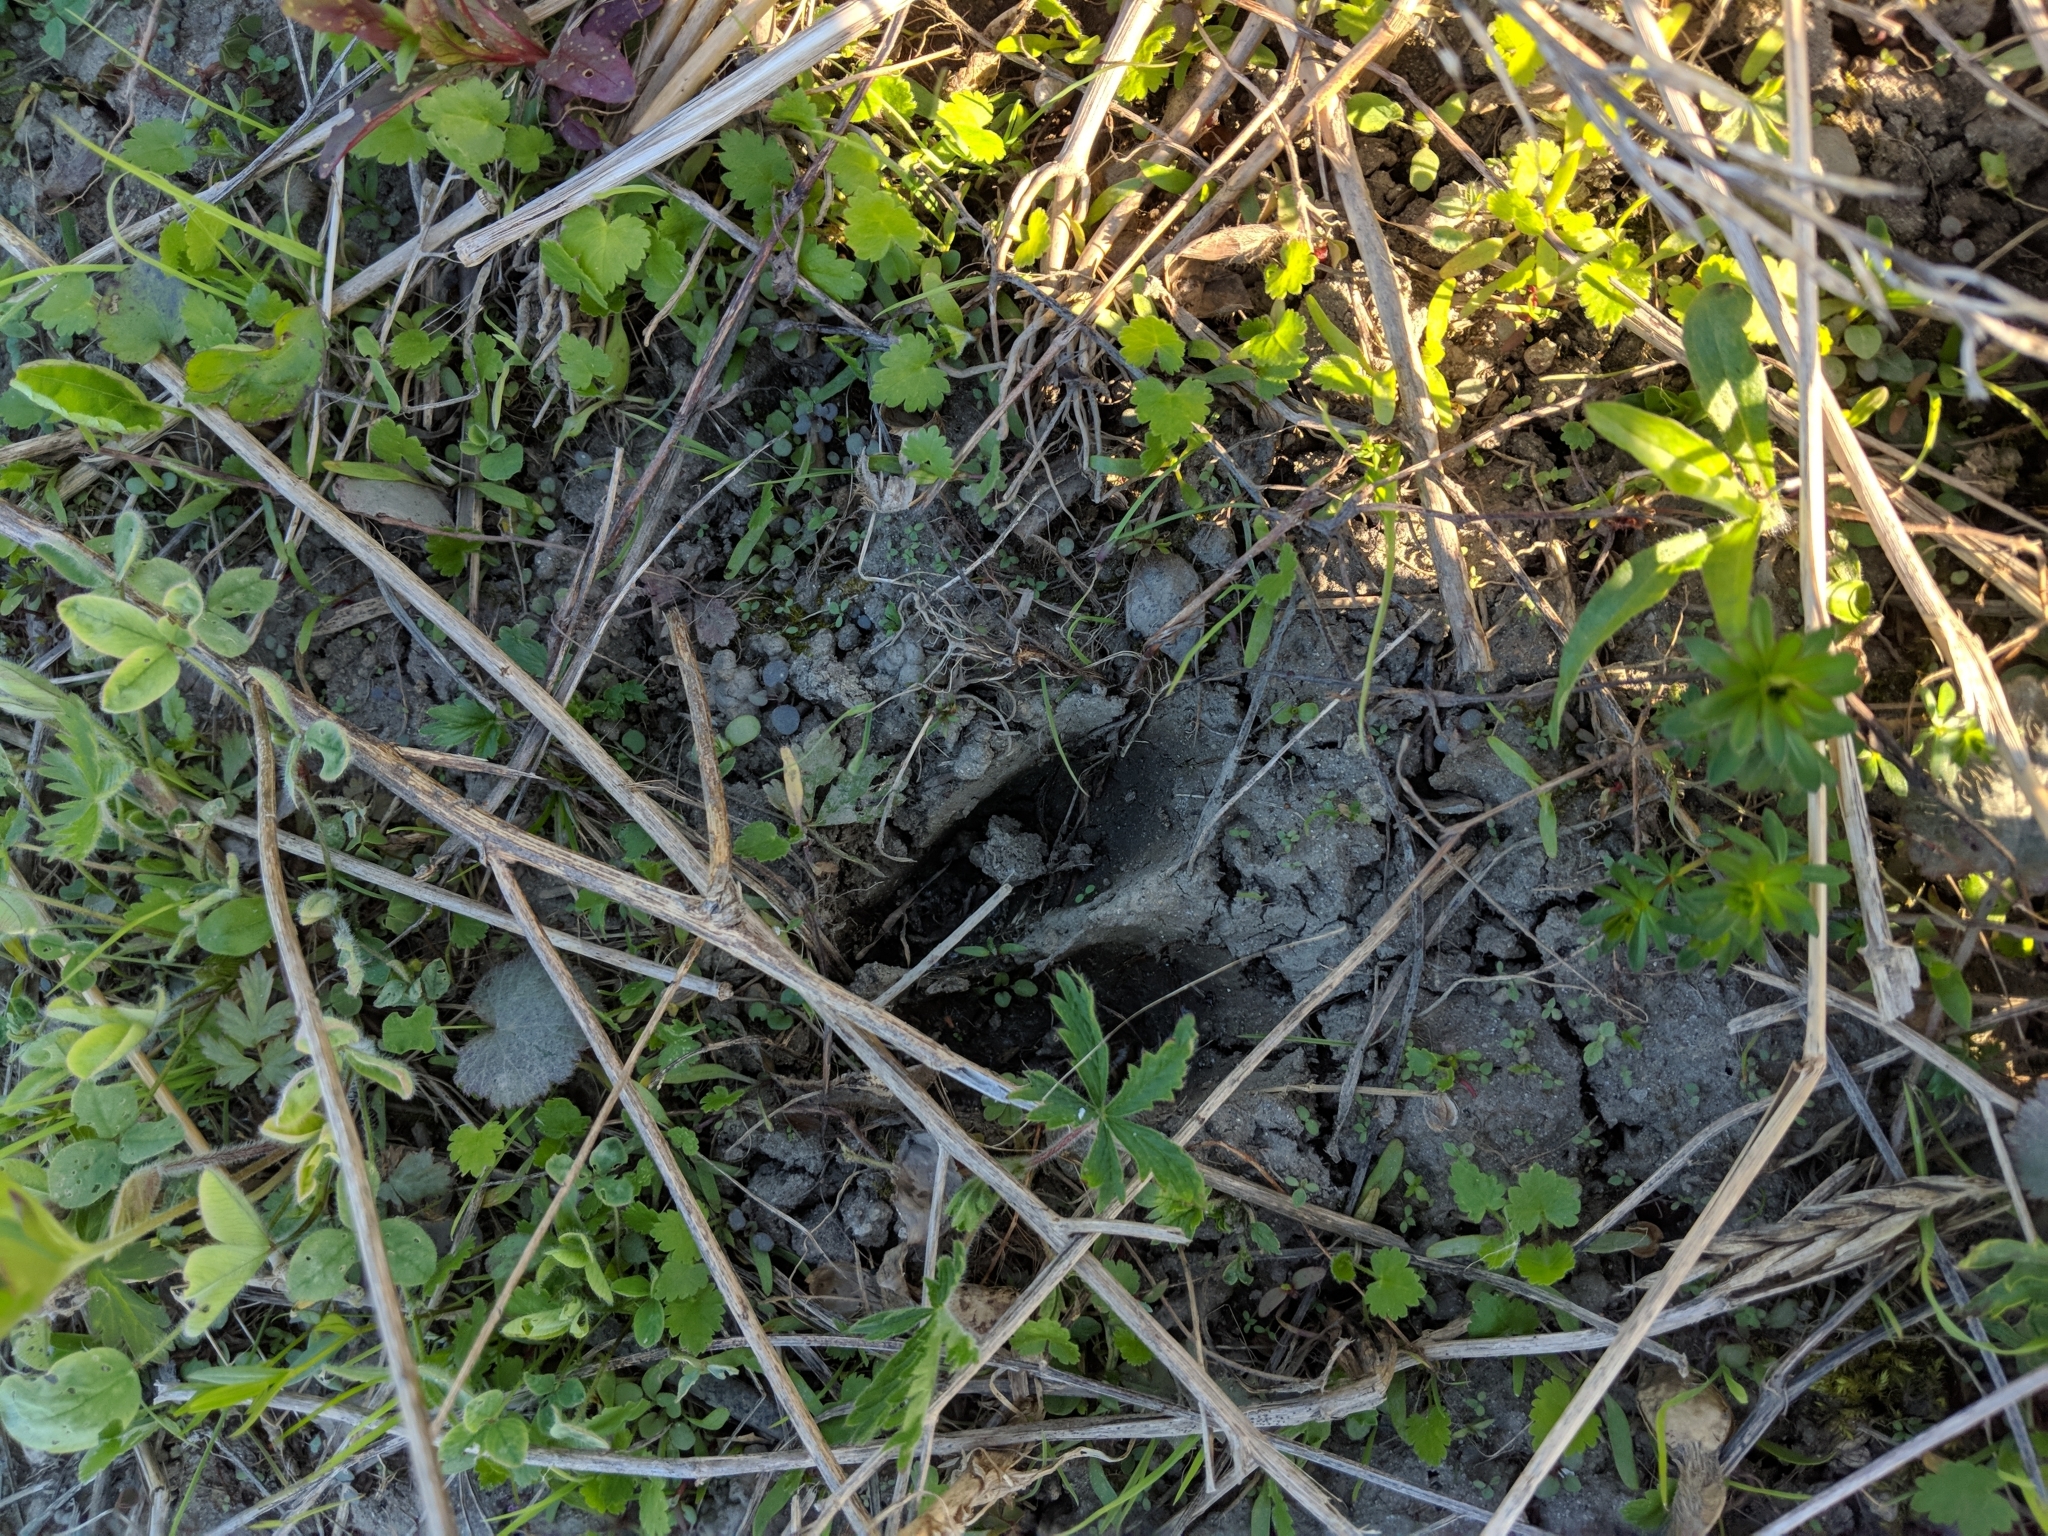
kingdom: Animalia
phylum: Chordata
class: Mammalia
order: Artiodactyla
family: Cervidae
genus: Odocoileus
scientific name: Odocoileus virginianus
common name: White-tailed deer
